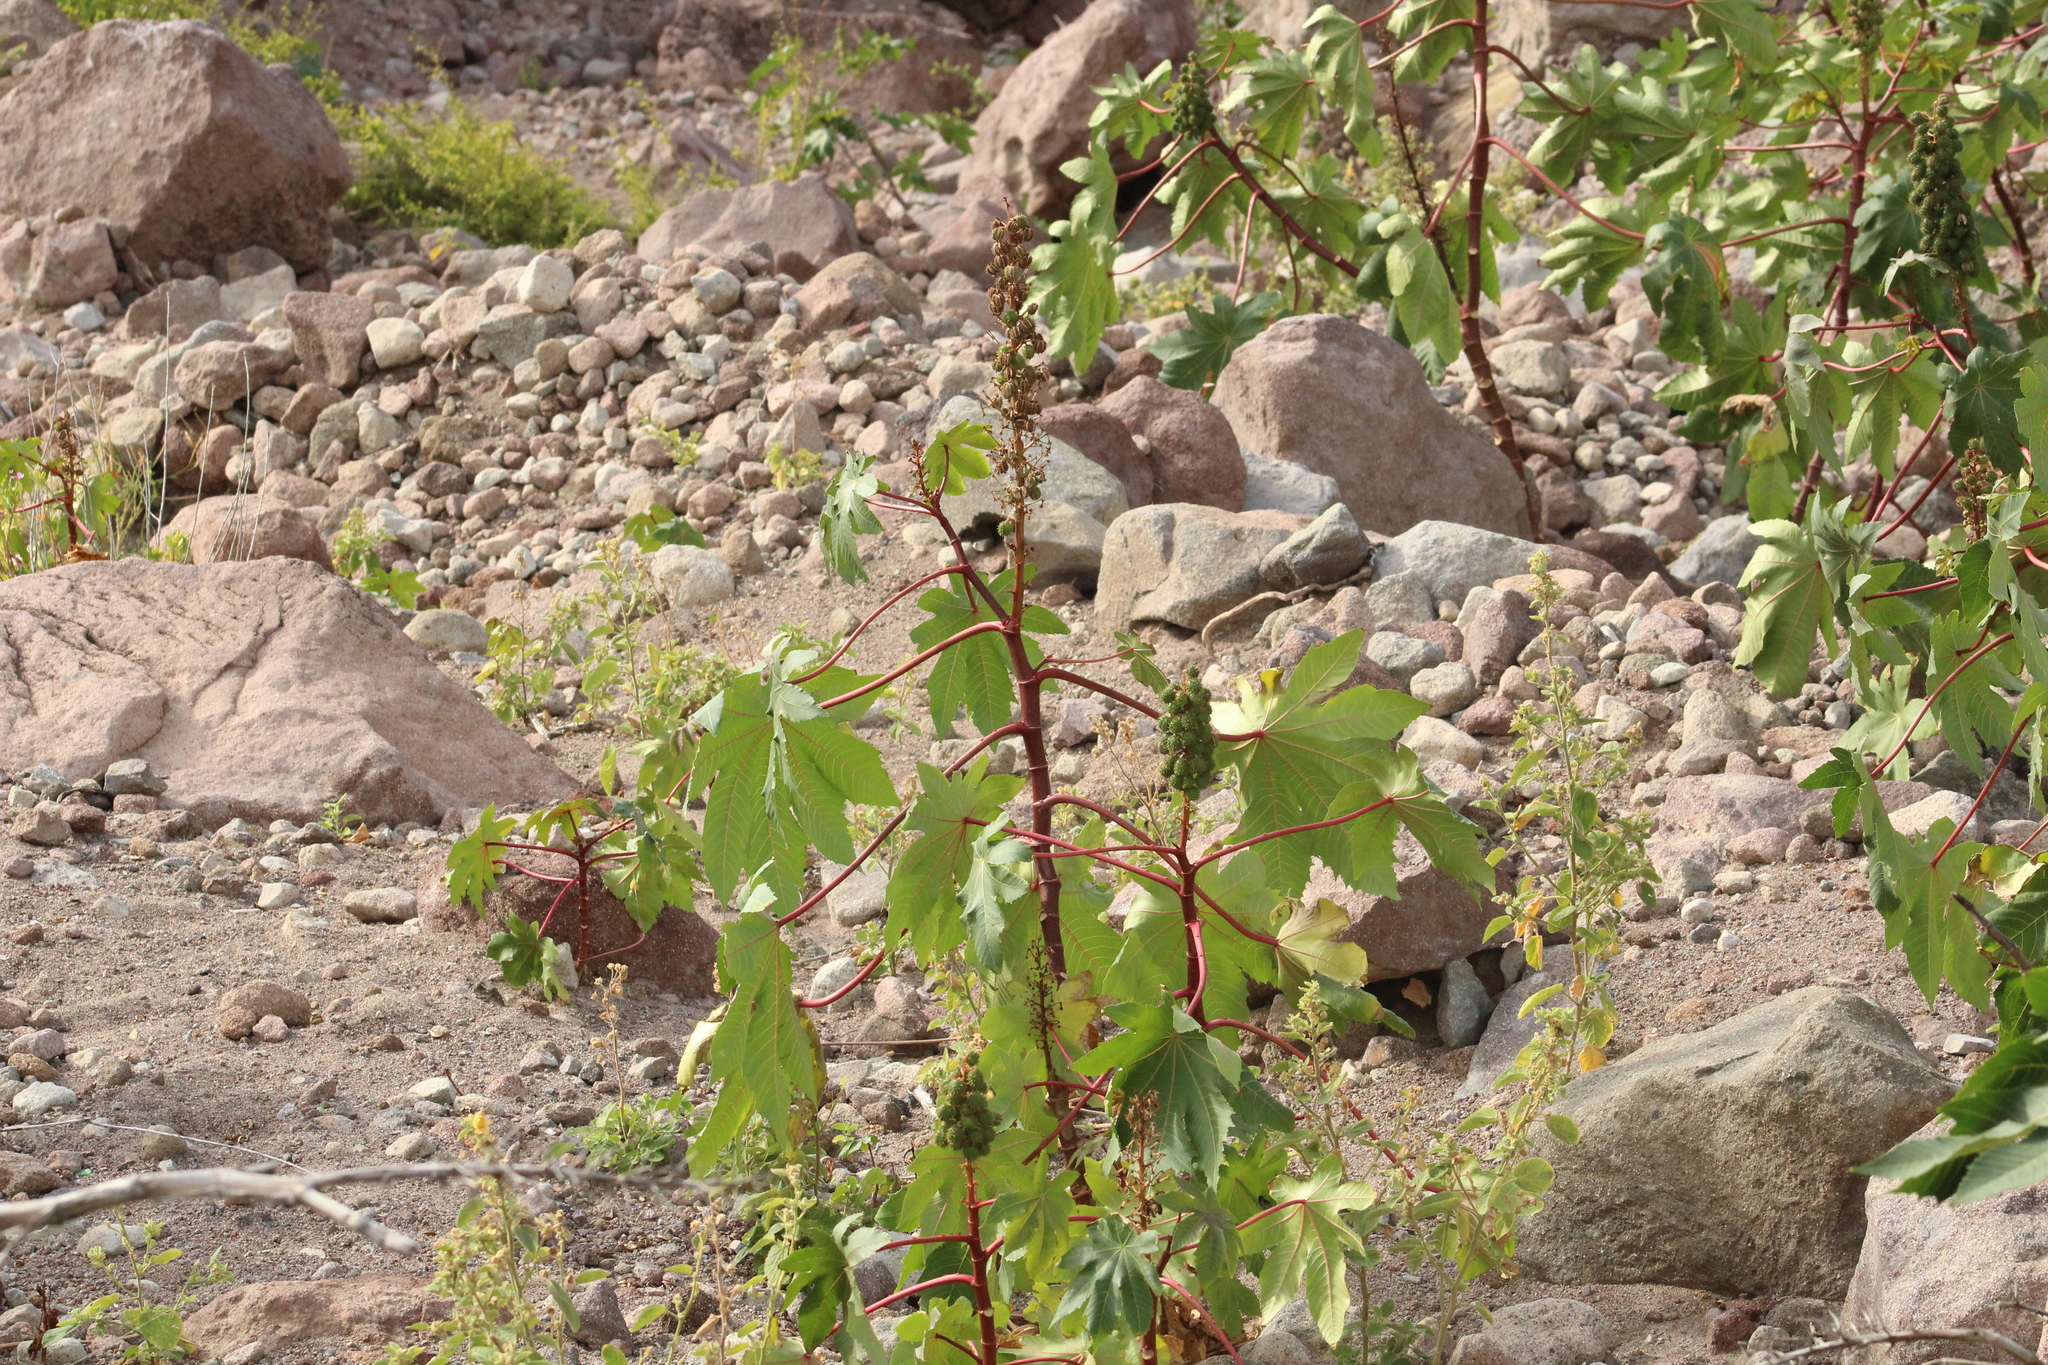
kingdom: Plantae
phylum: Tracheophyta
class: Magnoliopsida
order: Malpighiales
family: Euphorbiaceae
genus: Ricinus
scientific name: Ricinus communis
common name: Castor-oil-plant
